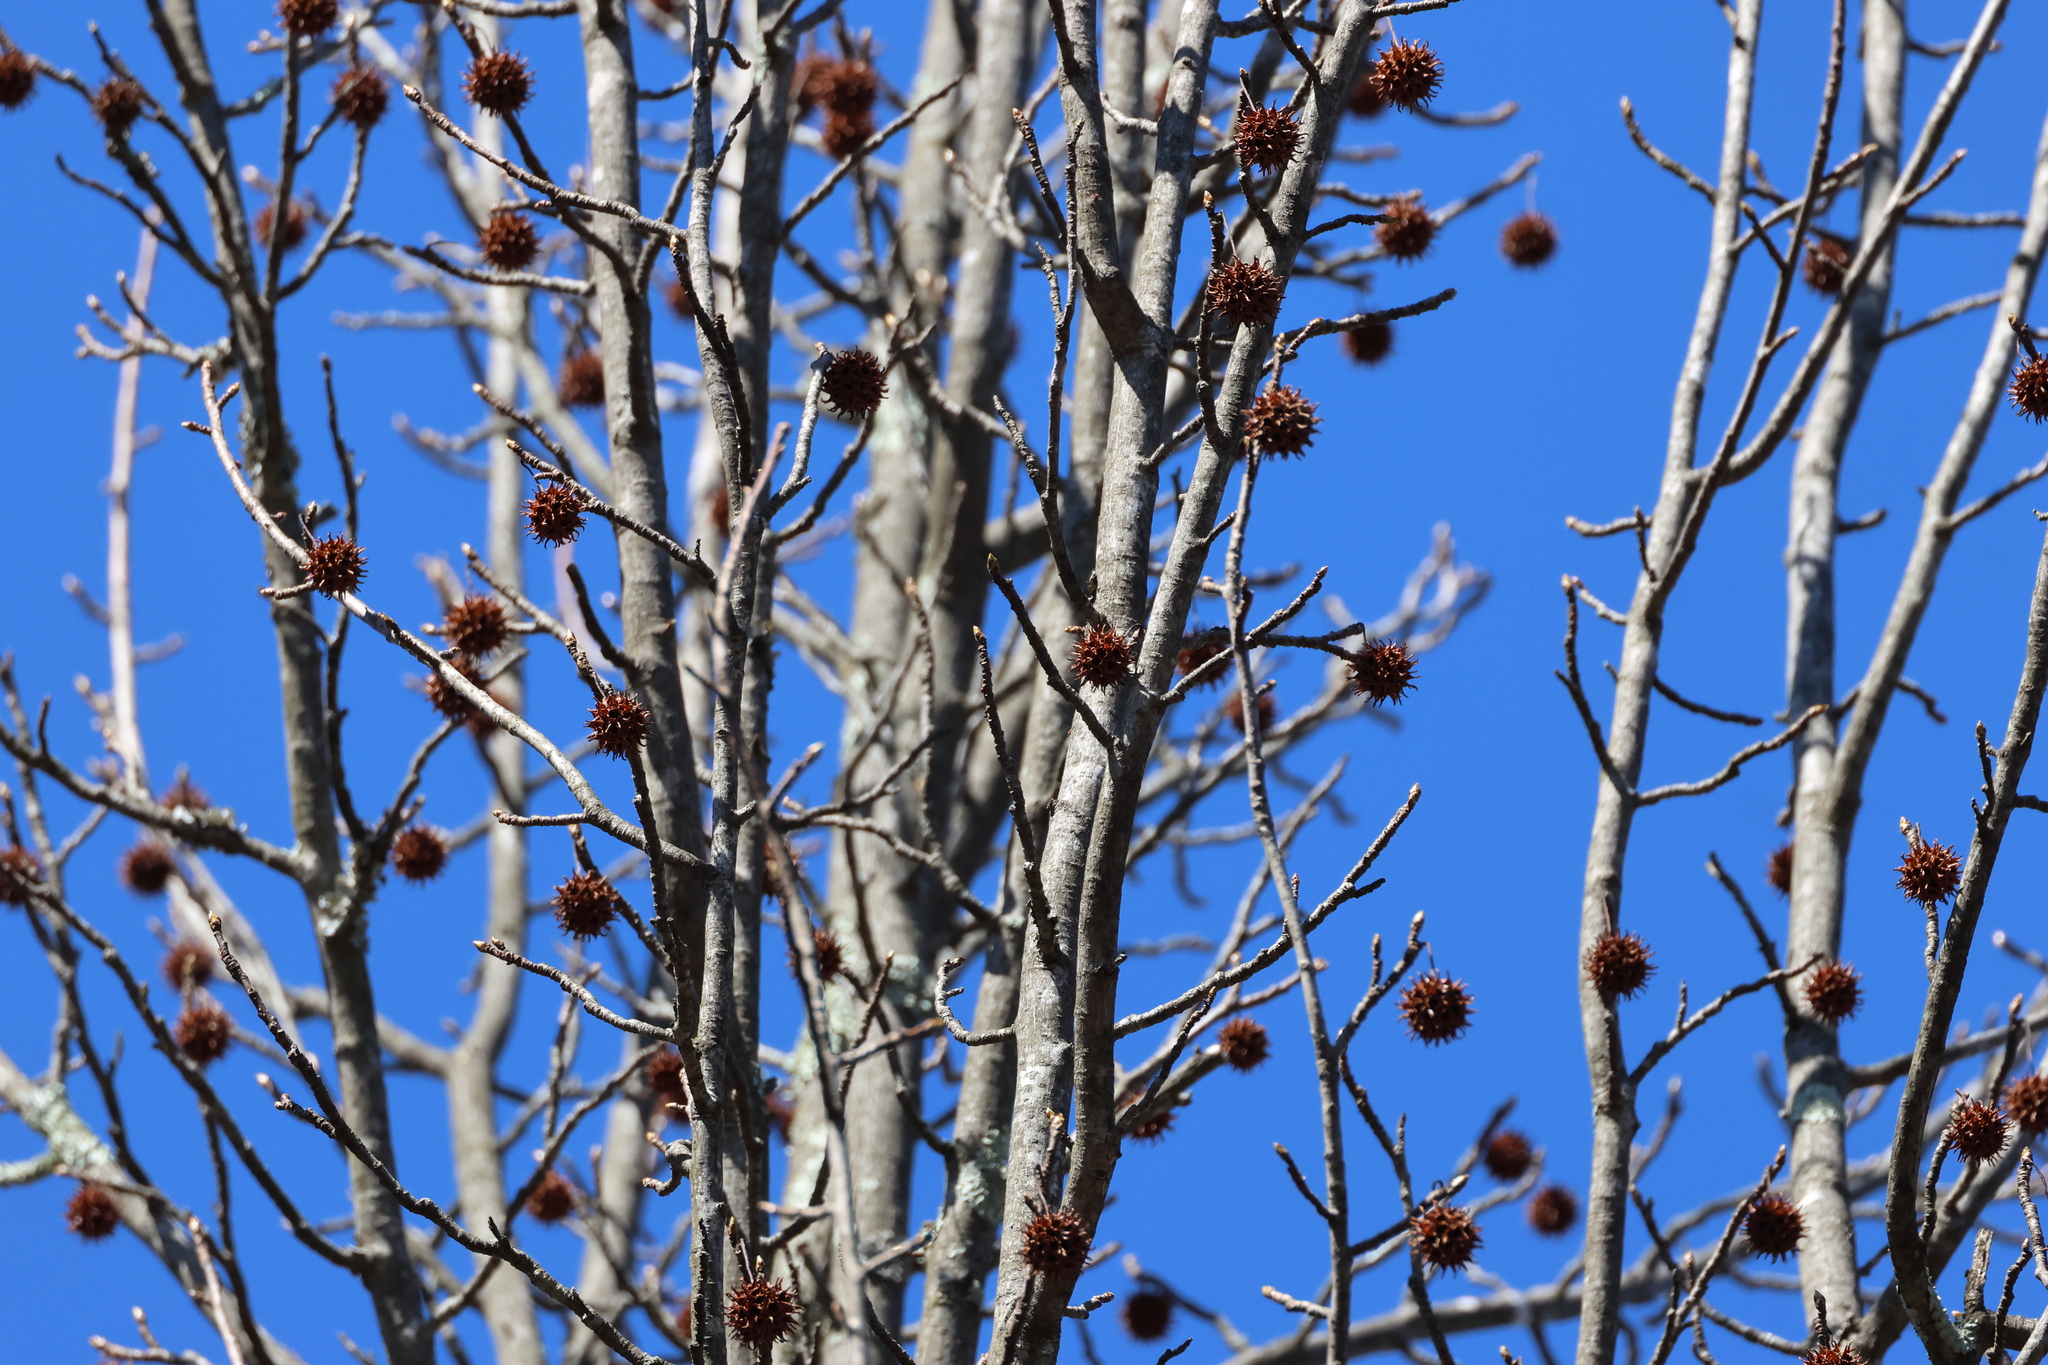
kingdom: Plantae
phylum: Tracheophyta
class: Magnoliopsida
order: Saxifragales
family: Altingiaceae
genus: Liquidambar
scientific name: Liquidambar styraciflua
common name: Sweet gum
